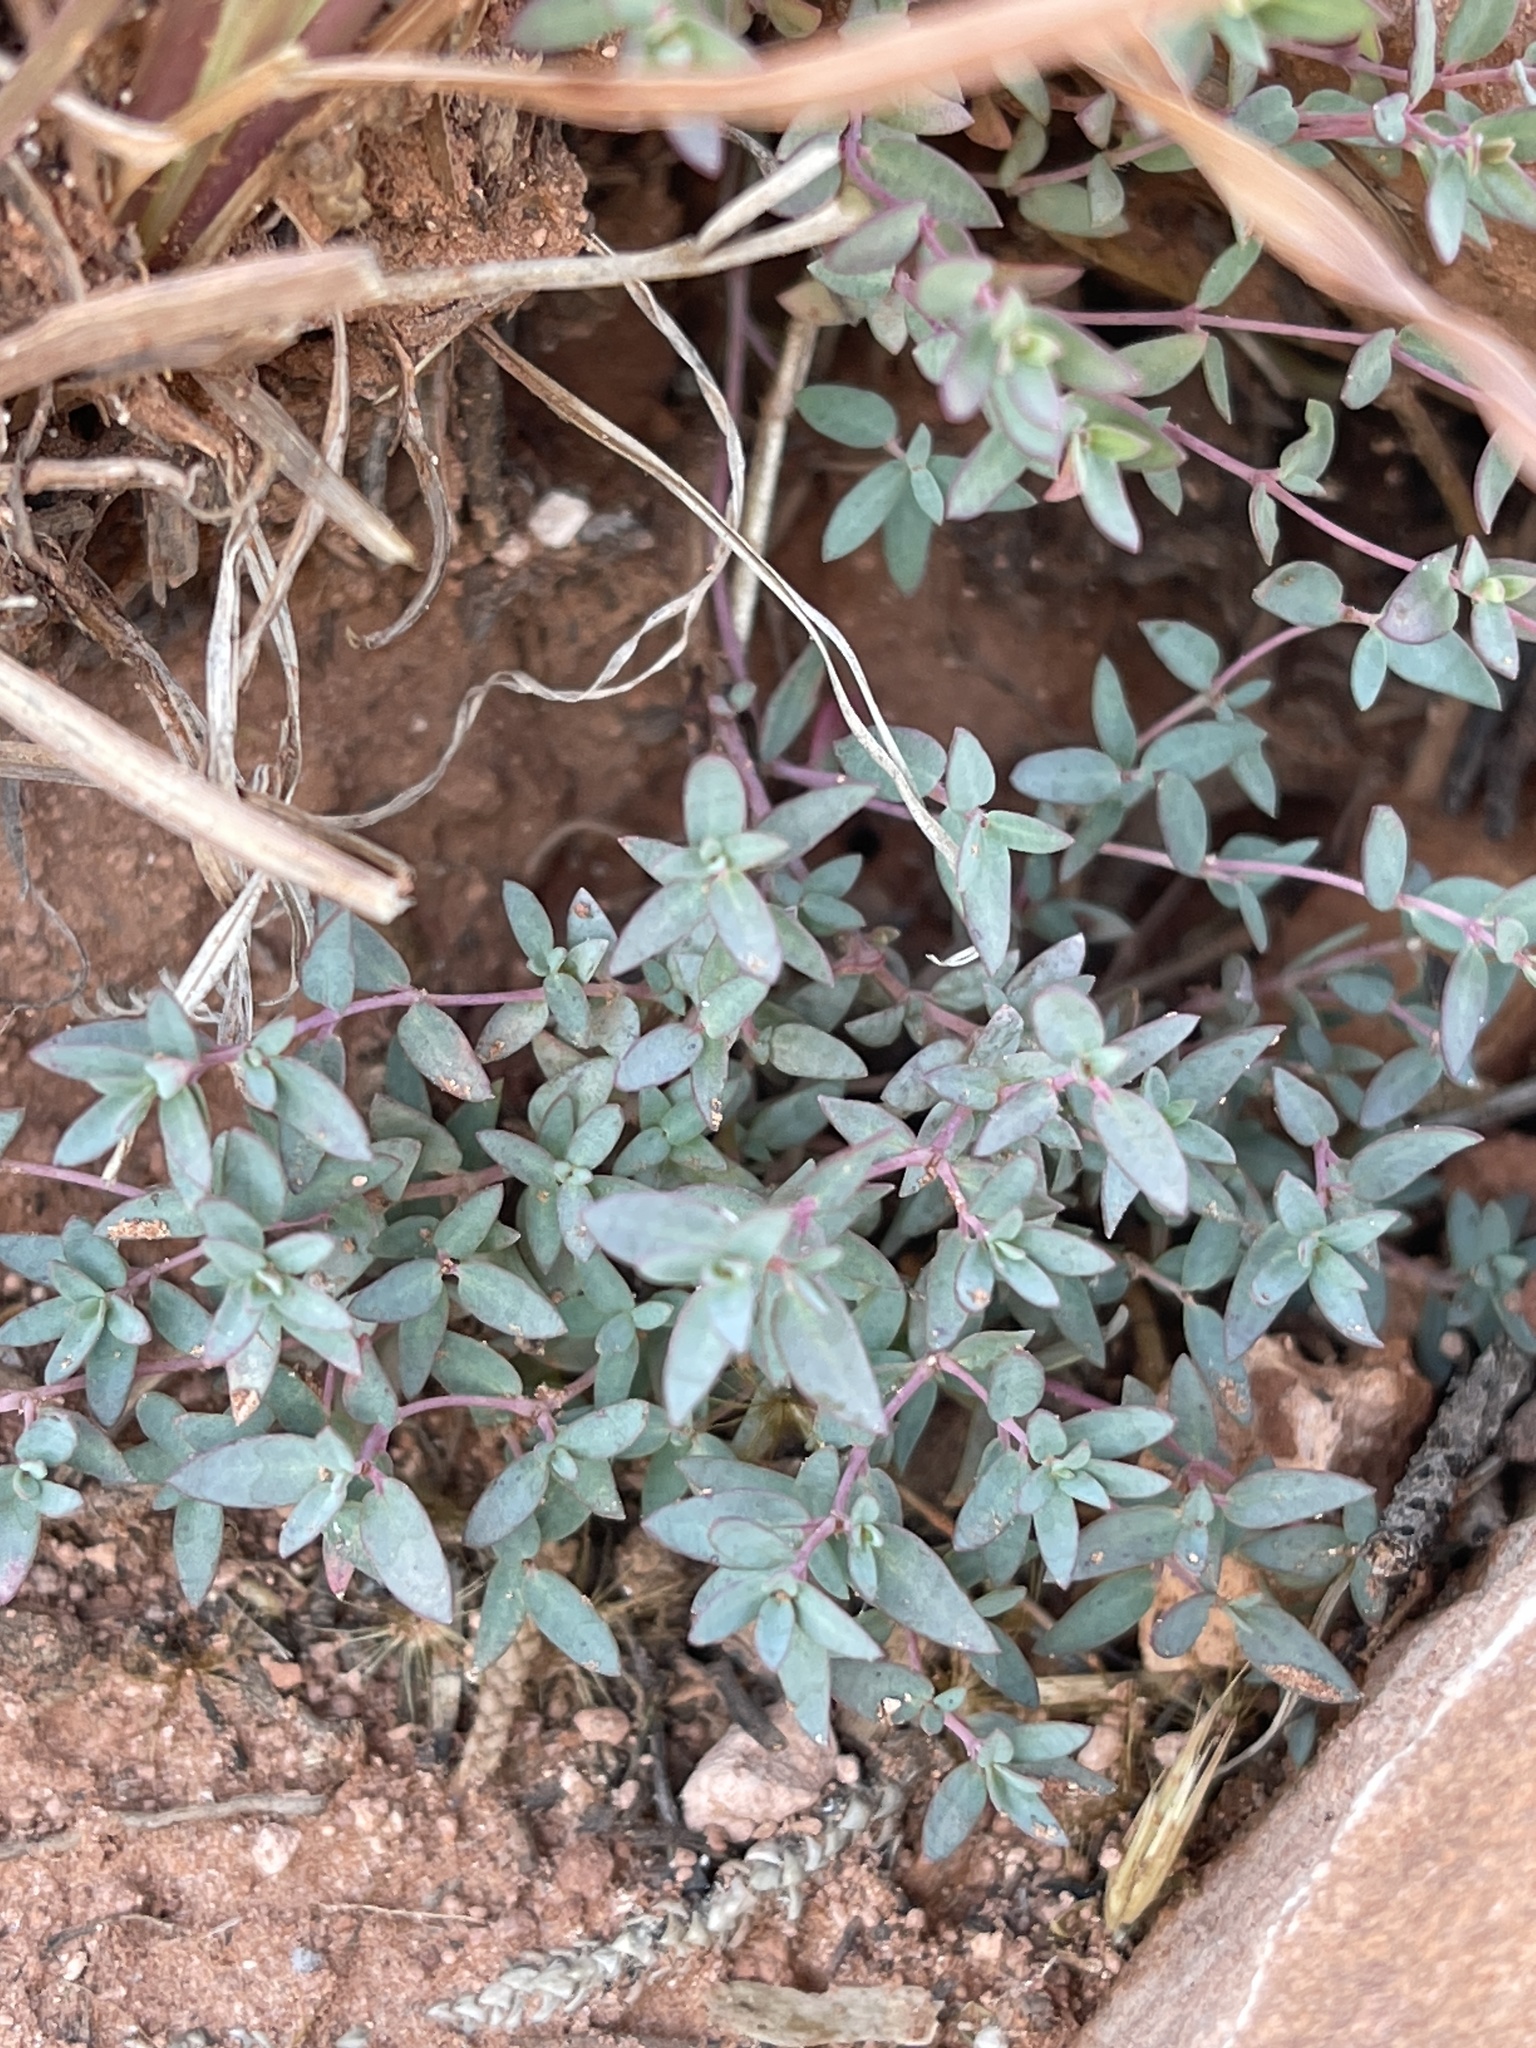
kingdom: Plantae
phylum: Tracheophyta
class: Magnoliopsida
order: Malpighiales
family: Euphorbiaceae
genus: Euphorbia
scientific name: Euphorbia chaetocalyx
